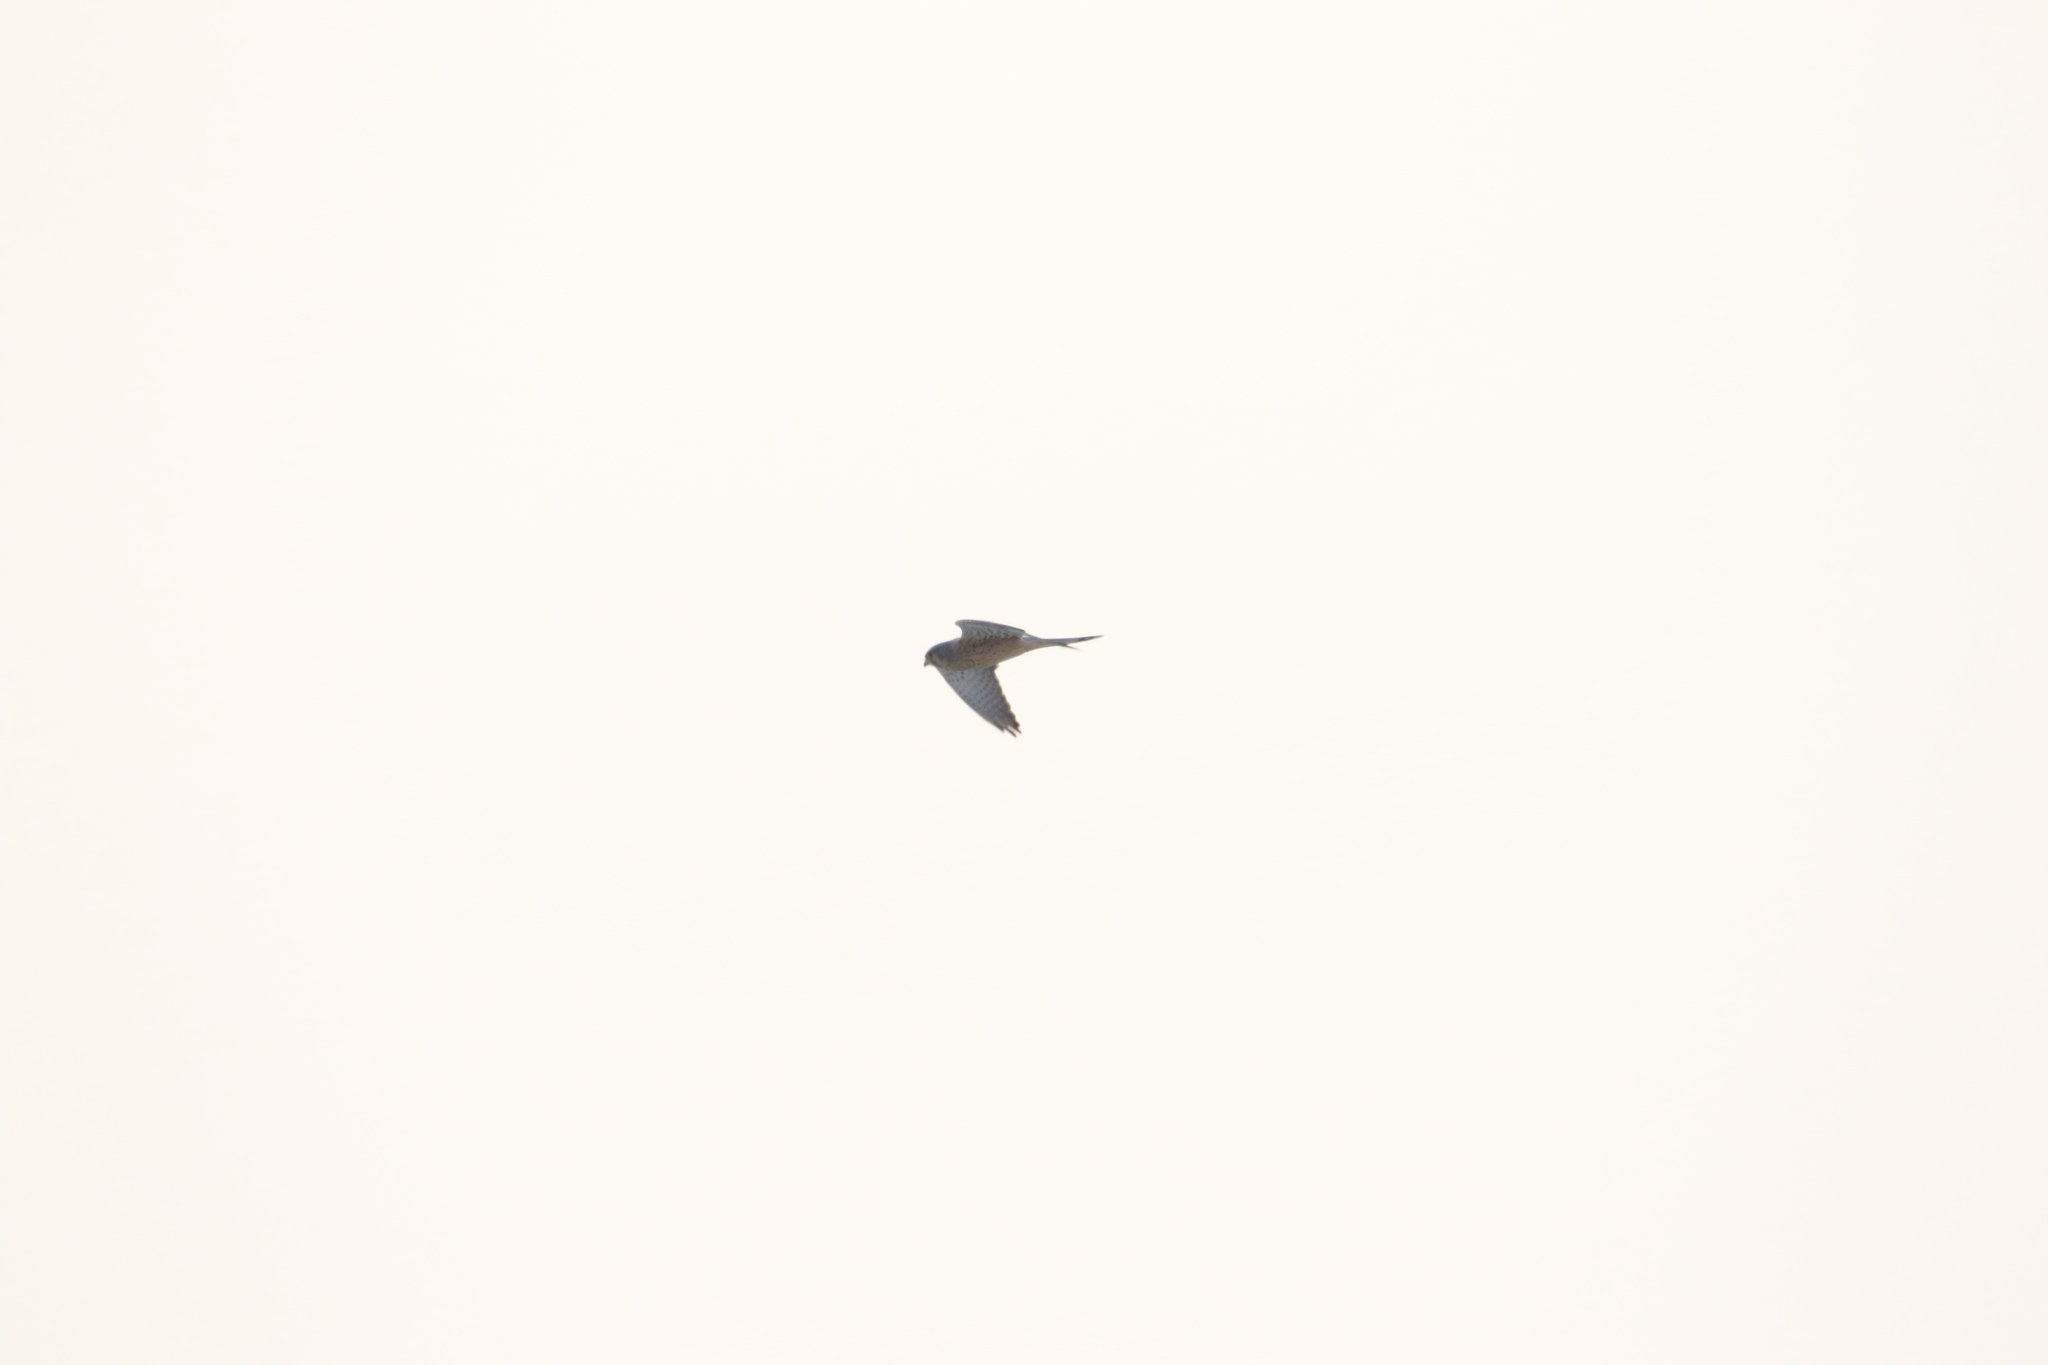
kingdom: Animalia
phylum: Chordata
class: Aves
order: Falconiformes
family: Falconidae
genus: Falco
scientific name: Falco tinnunculus
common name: Common kestrel
